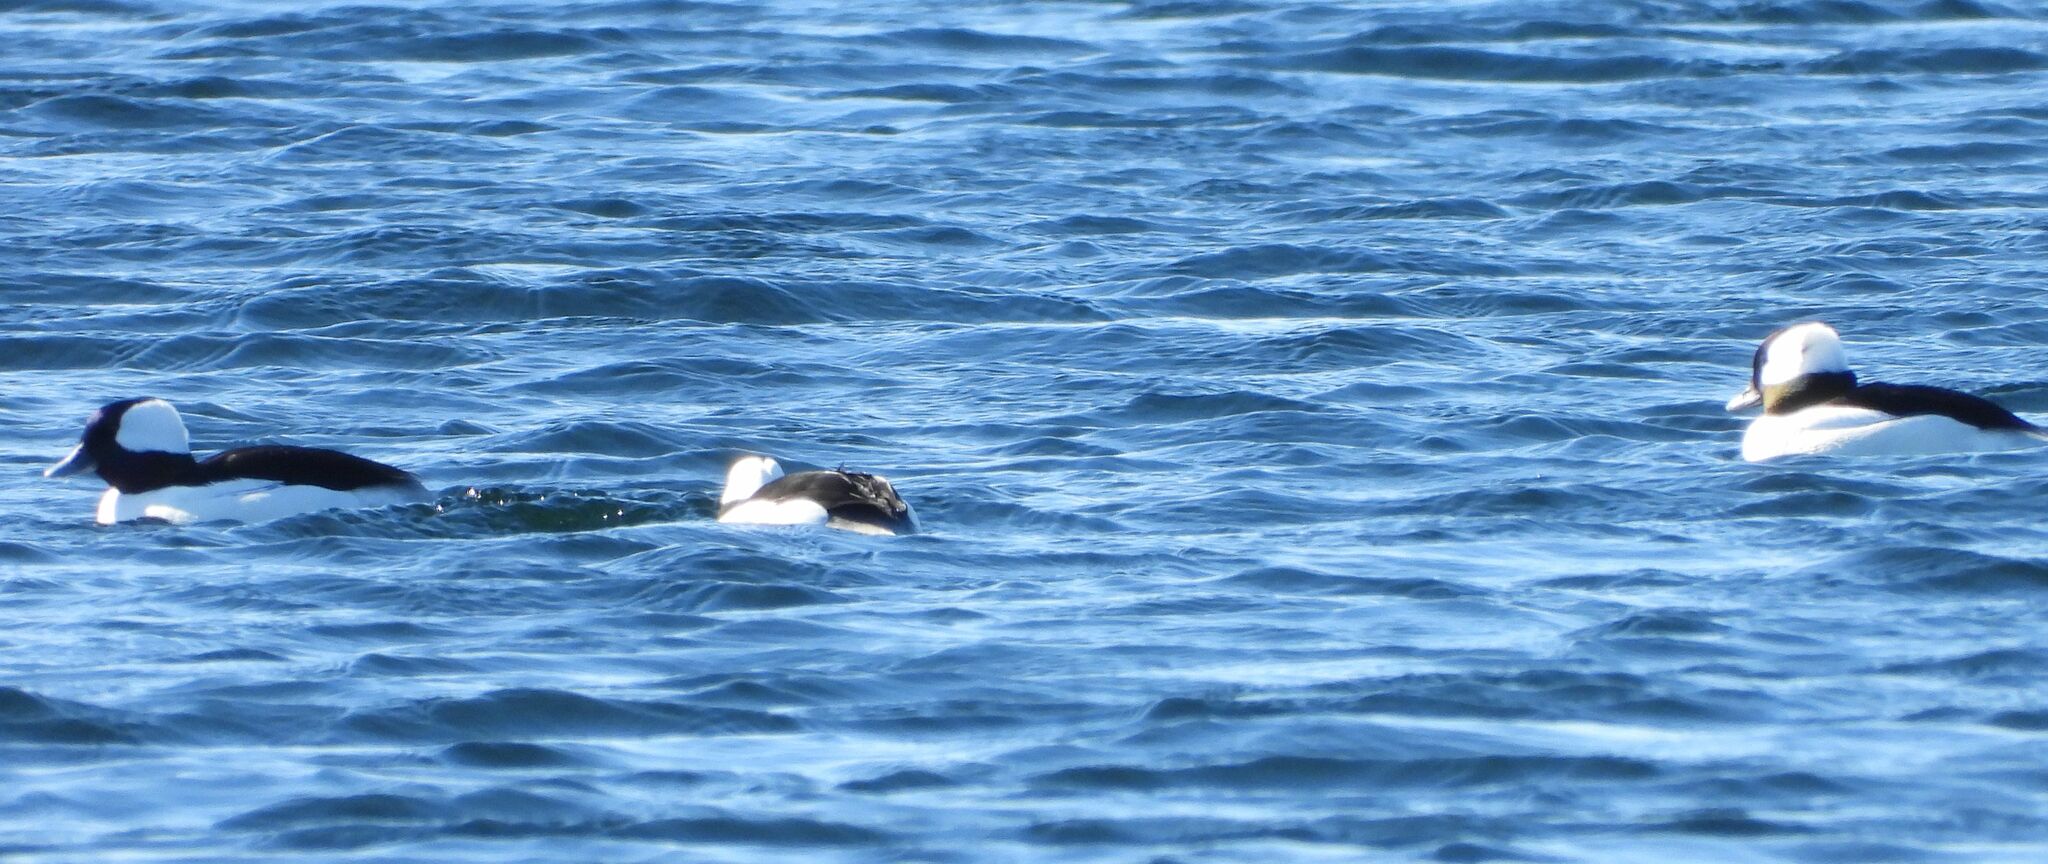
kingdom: Animalia
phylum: Chordata
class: Aves
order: Anseriformes
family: Anatidae
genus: Bucephala
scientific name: Bucephala albeola
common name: Bufflehead
